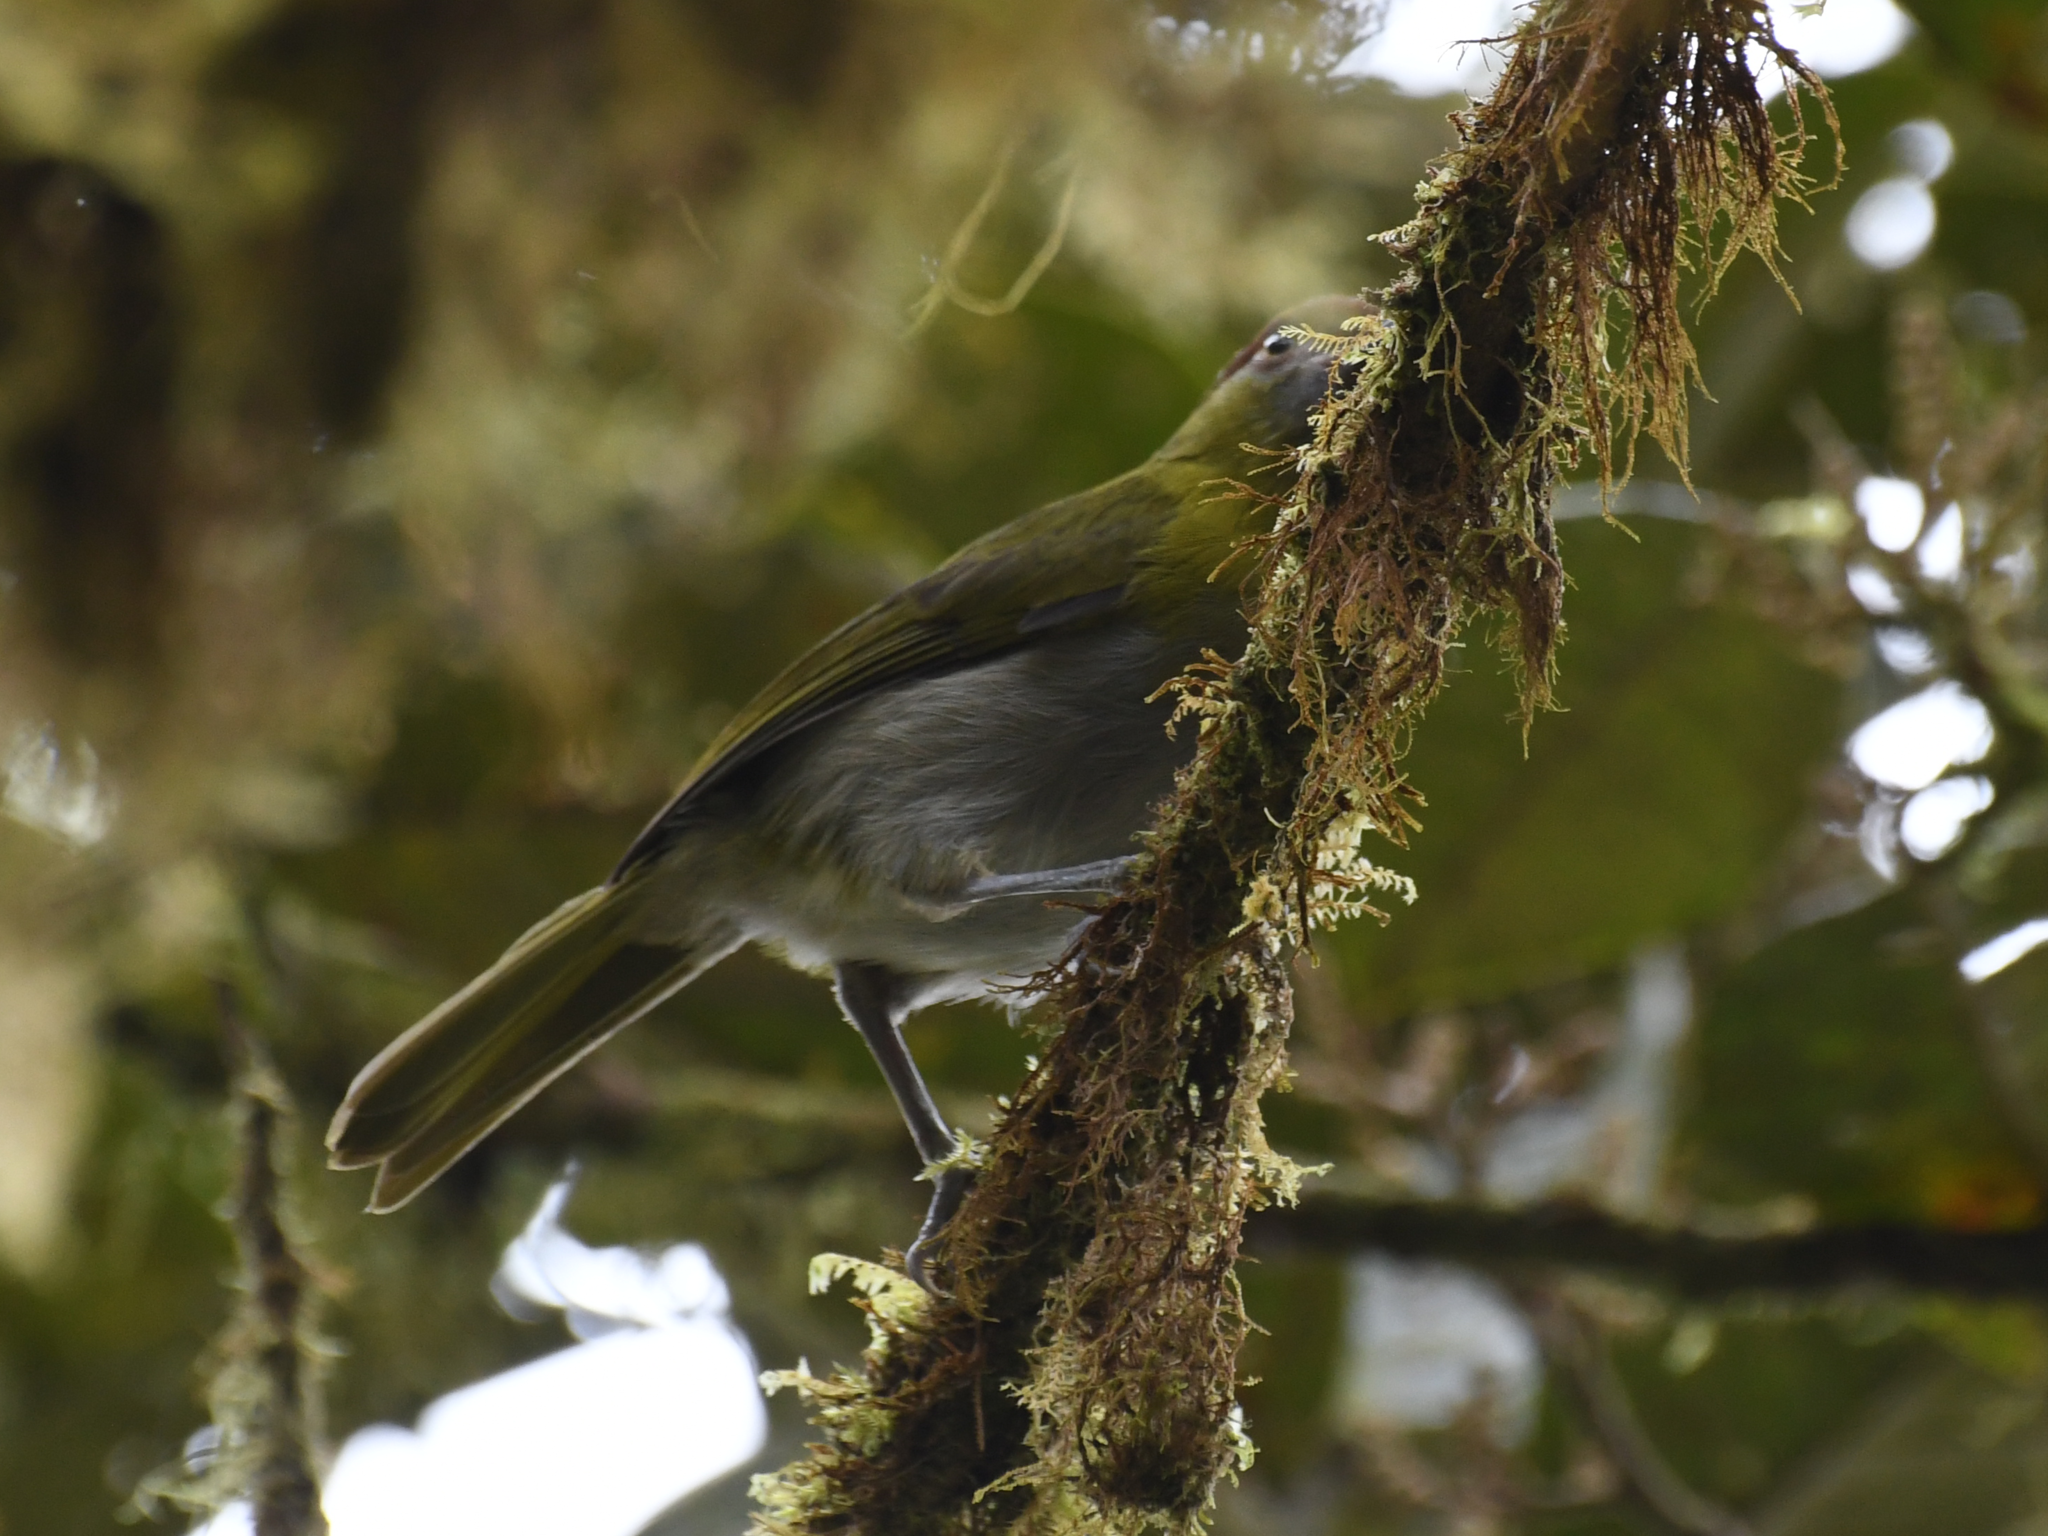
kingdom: Animalia
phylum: Chordata
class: Aves
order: Passeriformes
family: Vireonidae
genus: Cyclarhis
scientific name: Cyclarhis nigrirostris
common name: Black-billed peppershrike
